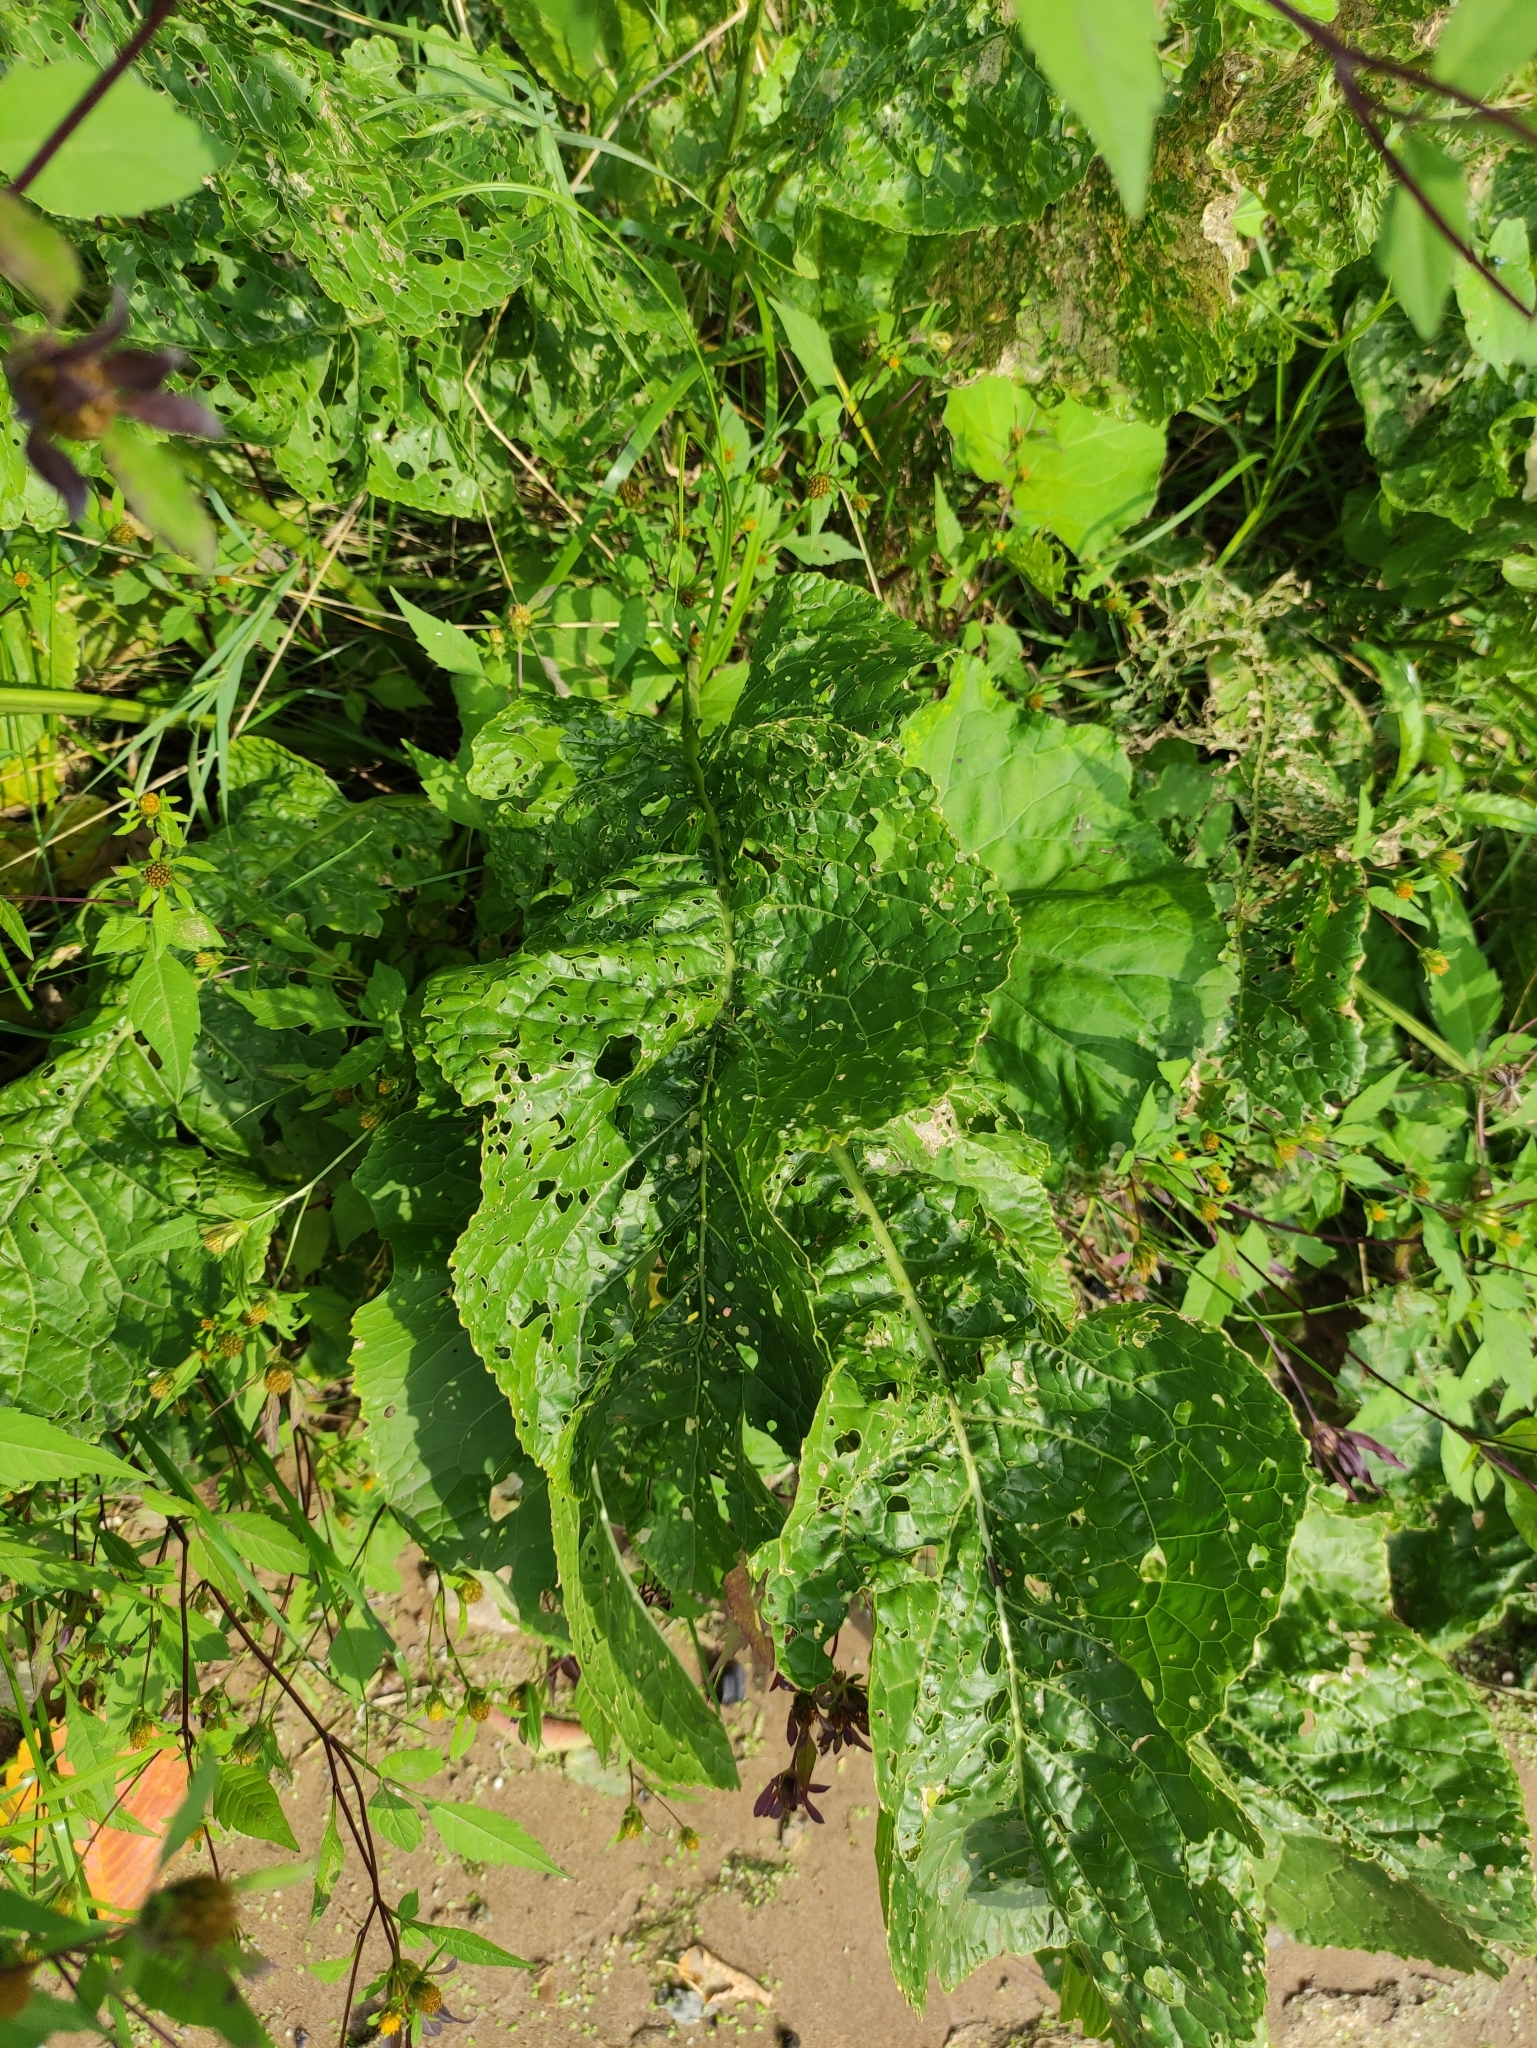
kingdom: Plantae
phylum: Tracheophyta
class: Magnoliopsida
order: Brassicales
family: Brassicaceae
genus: Armoracia
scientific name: Armoracia rusticana
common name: Horseradish
